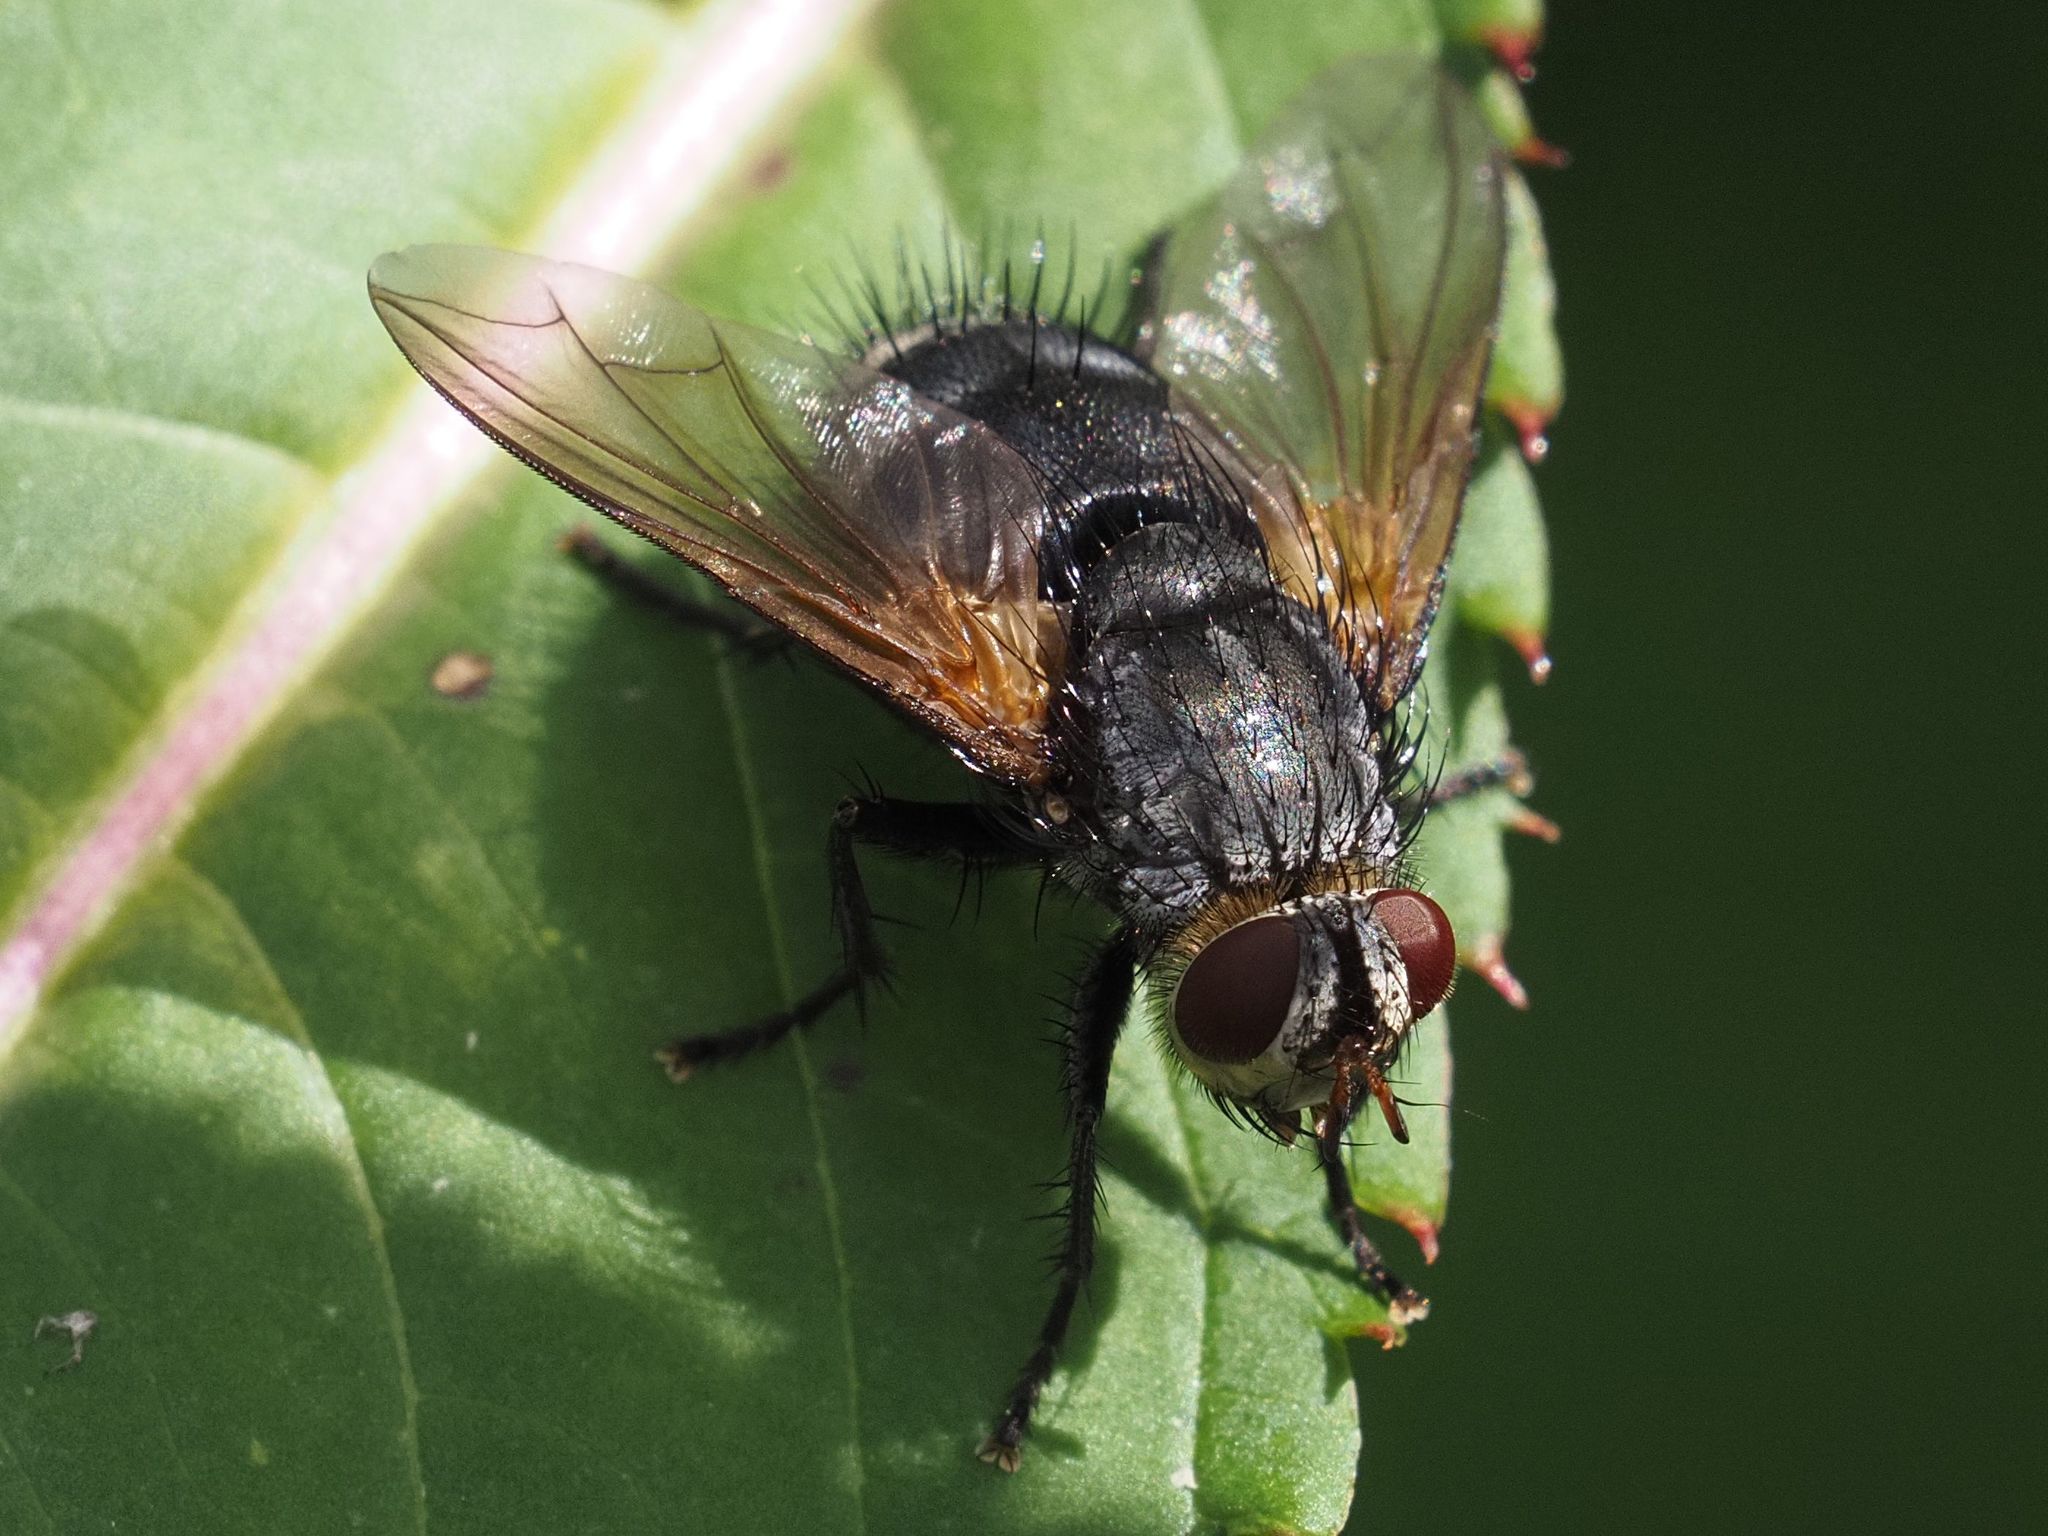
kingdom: Animalia
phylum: Arthropoda
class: Insecta
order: Diptera
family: Tachinidae
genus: Nemoraea
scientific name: Nemoraea pellucida
